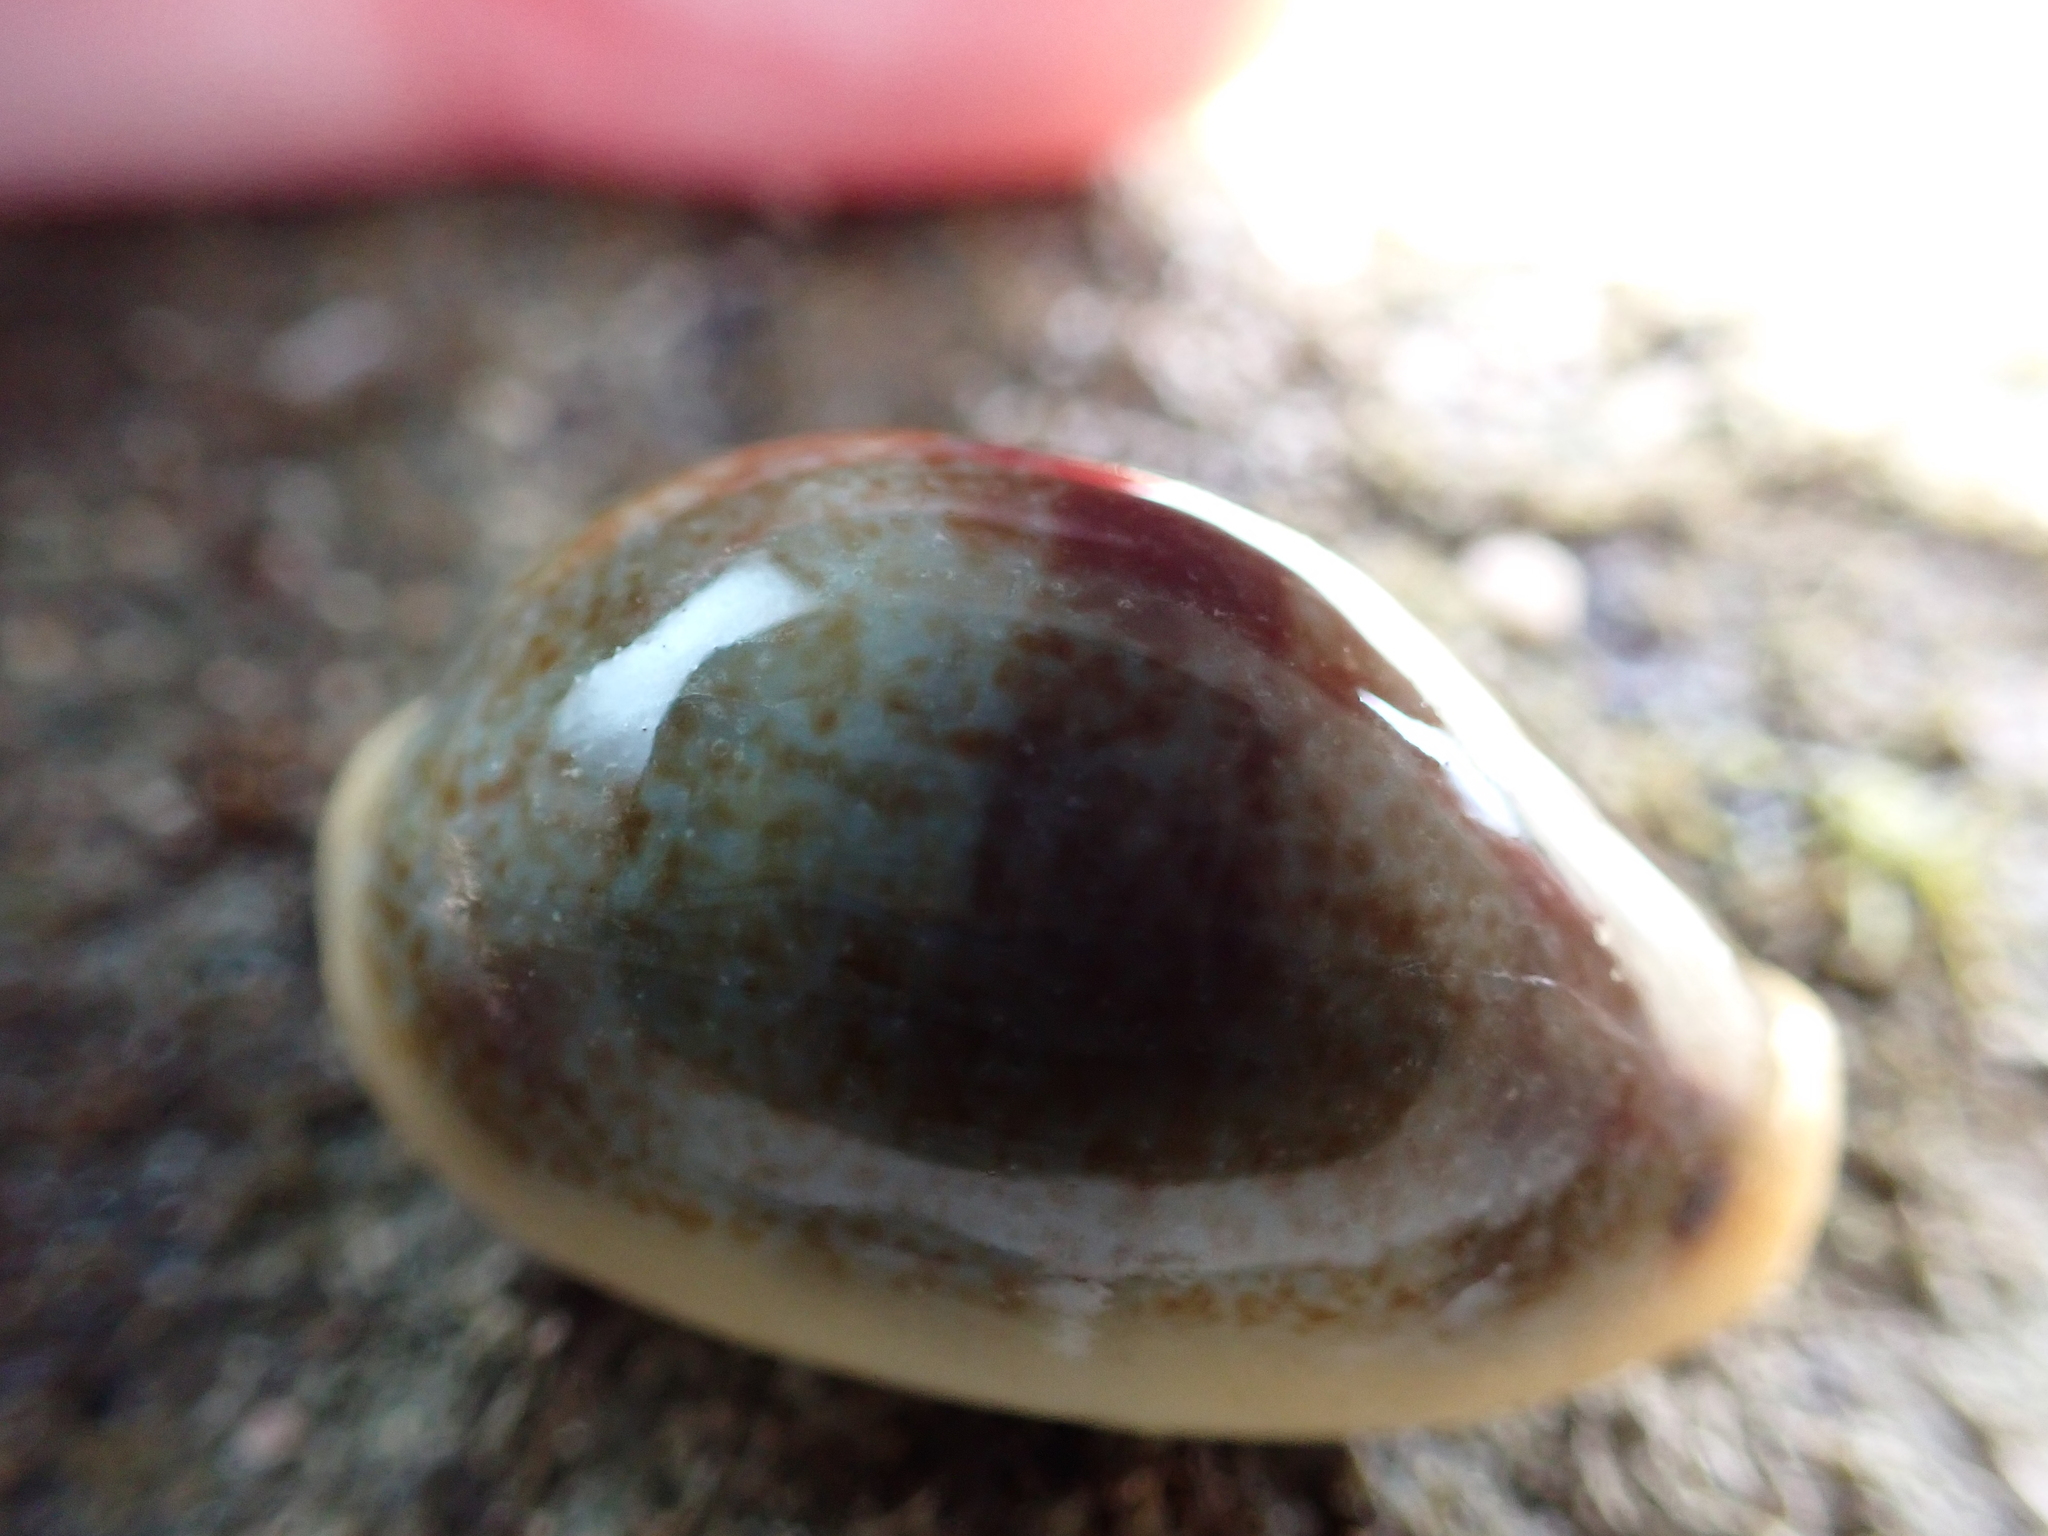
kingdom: Animalia
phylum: Mollusca
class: Gastropoda
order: Littorinimorpha
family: Cypraeidae
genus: Erronea
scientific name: Erronea errones
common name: Mistaken cowrie
